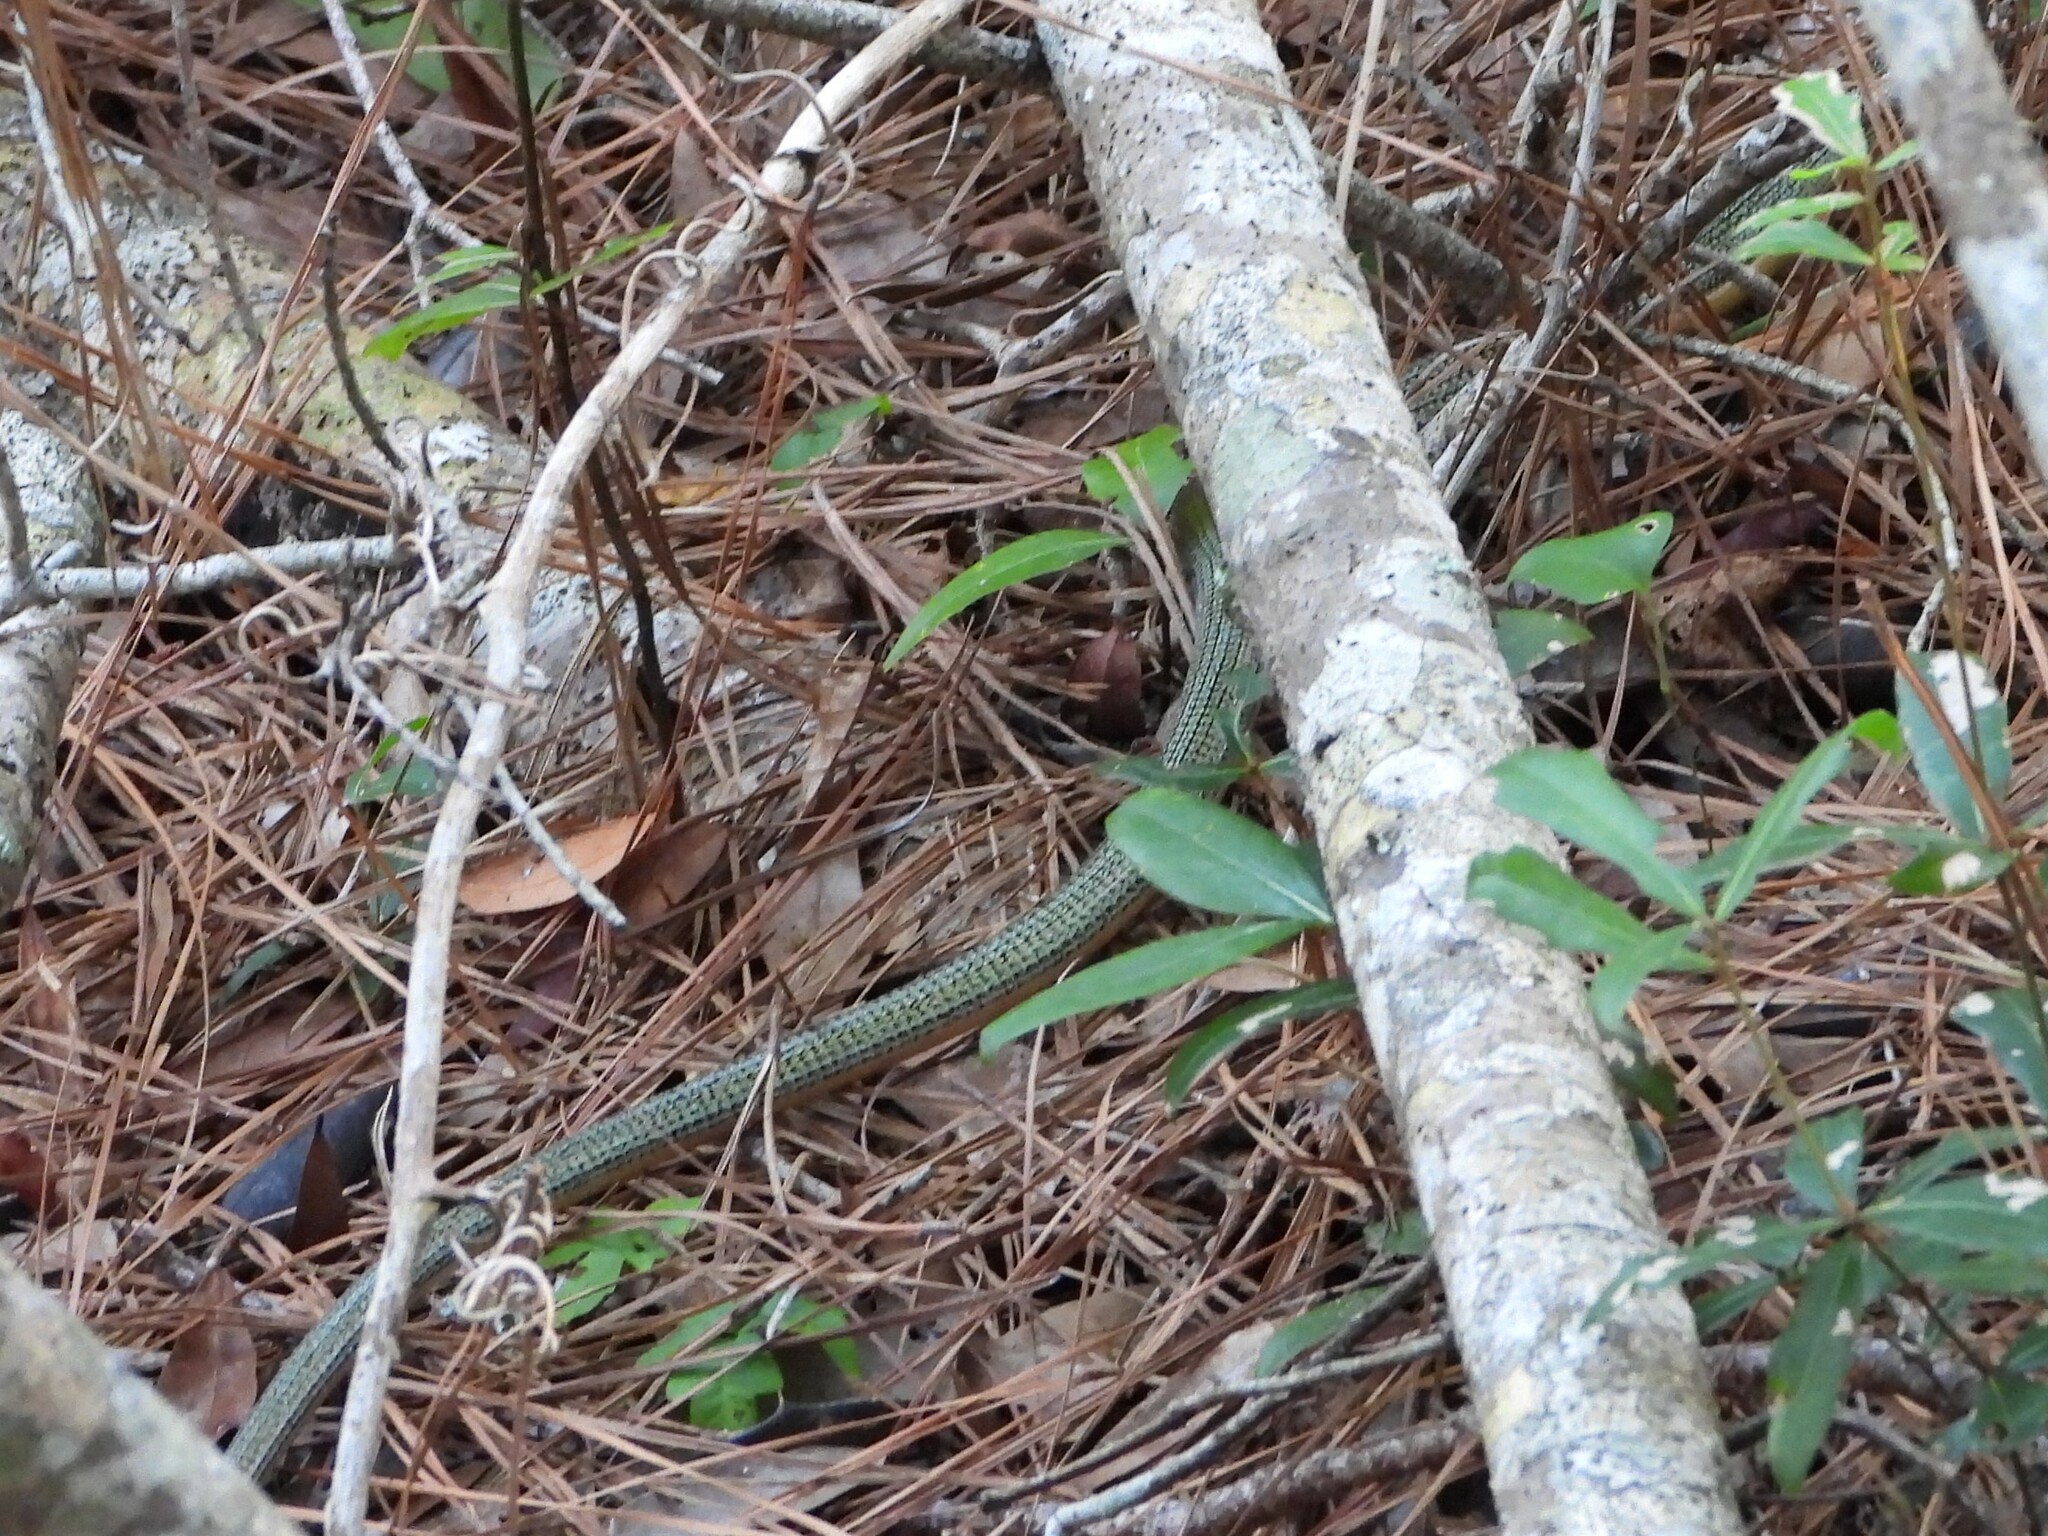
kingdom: Animalia
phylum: Chordata
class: Squamata
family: Anguidae
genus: Ophisaurus
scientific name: Ophisaurus ventralis
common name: Eastern glass lizard
